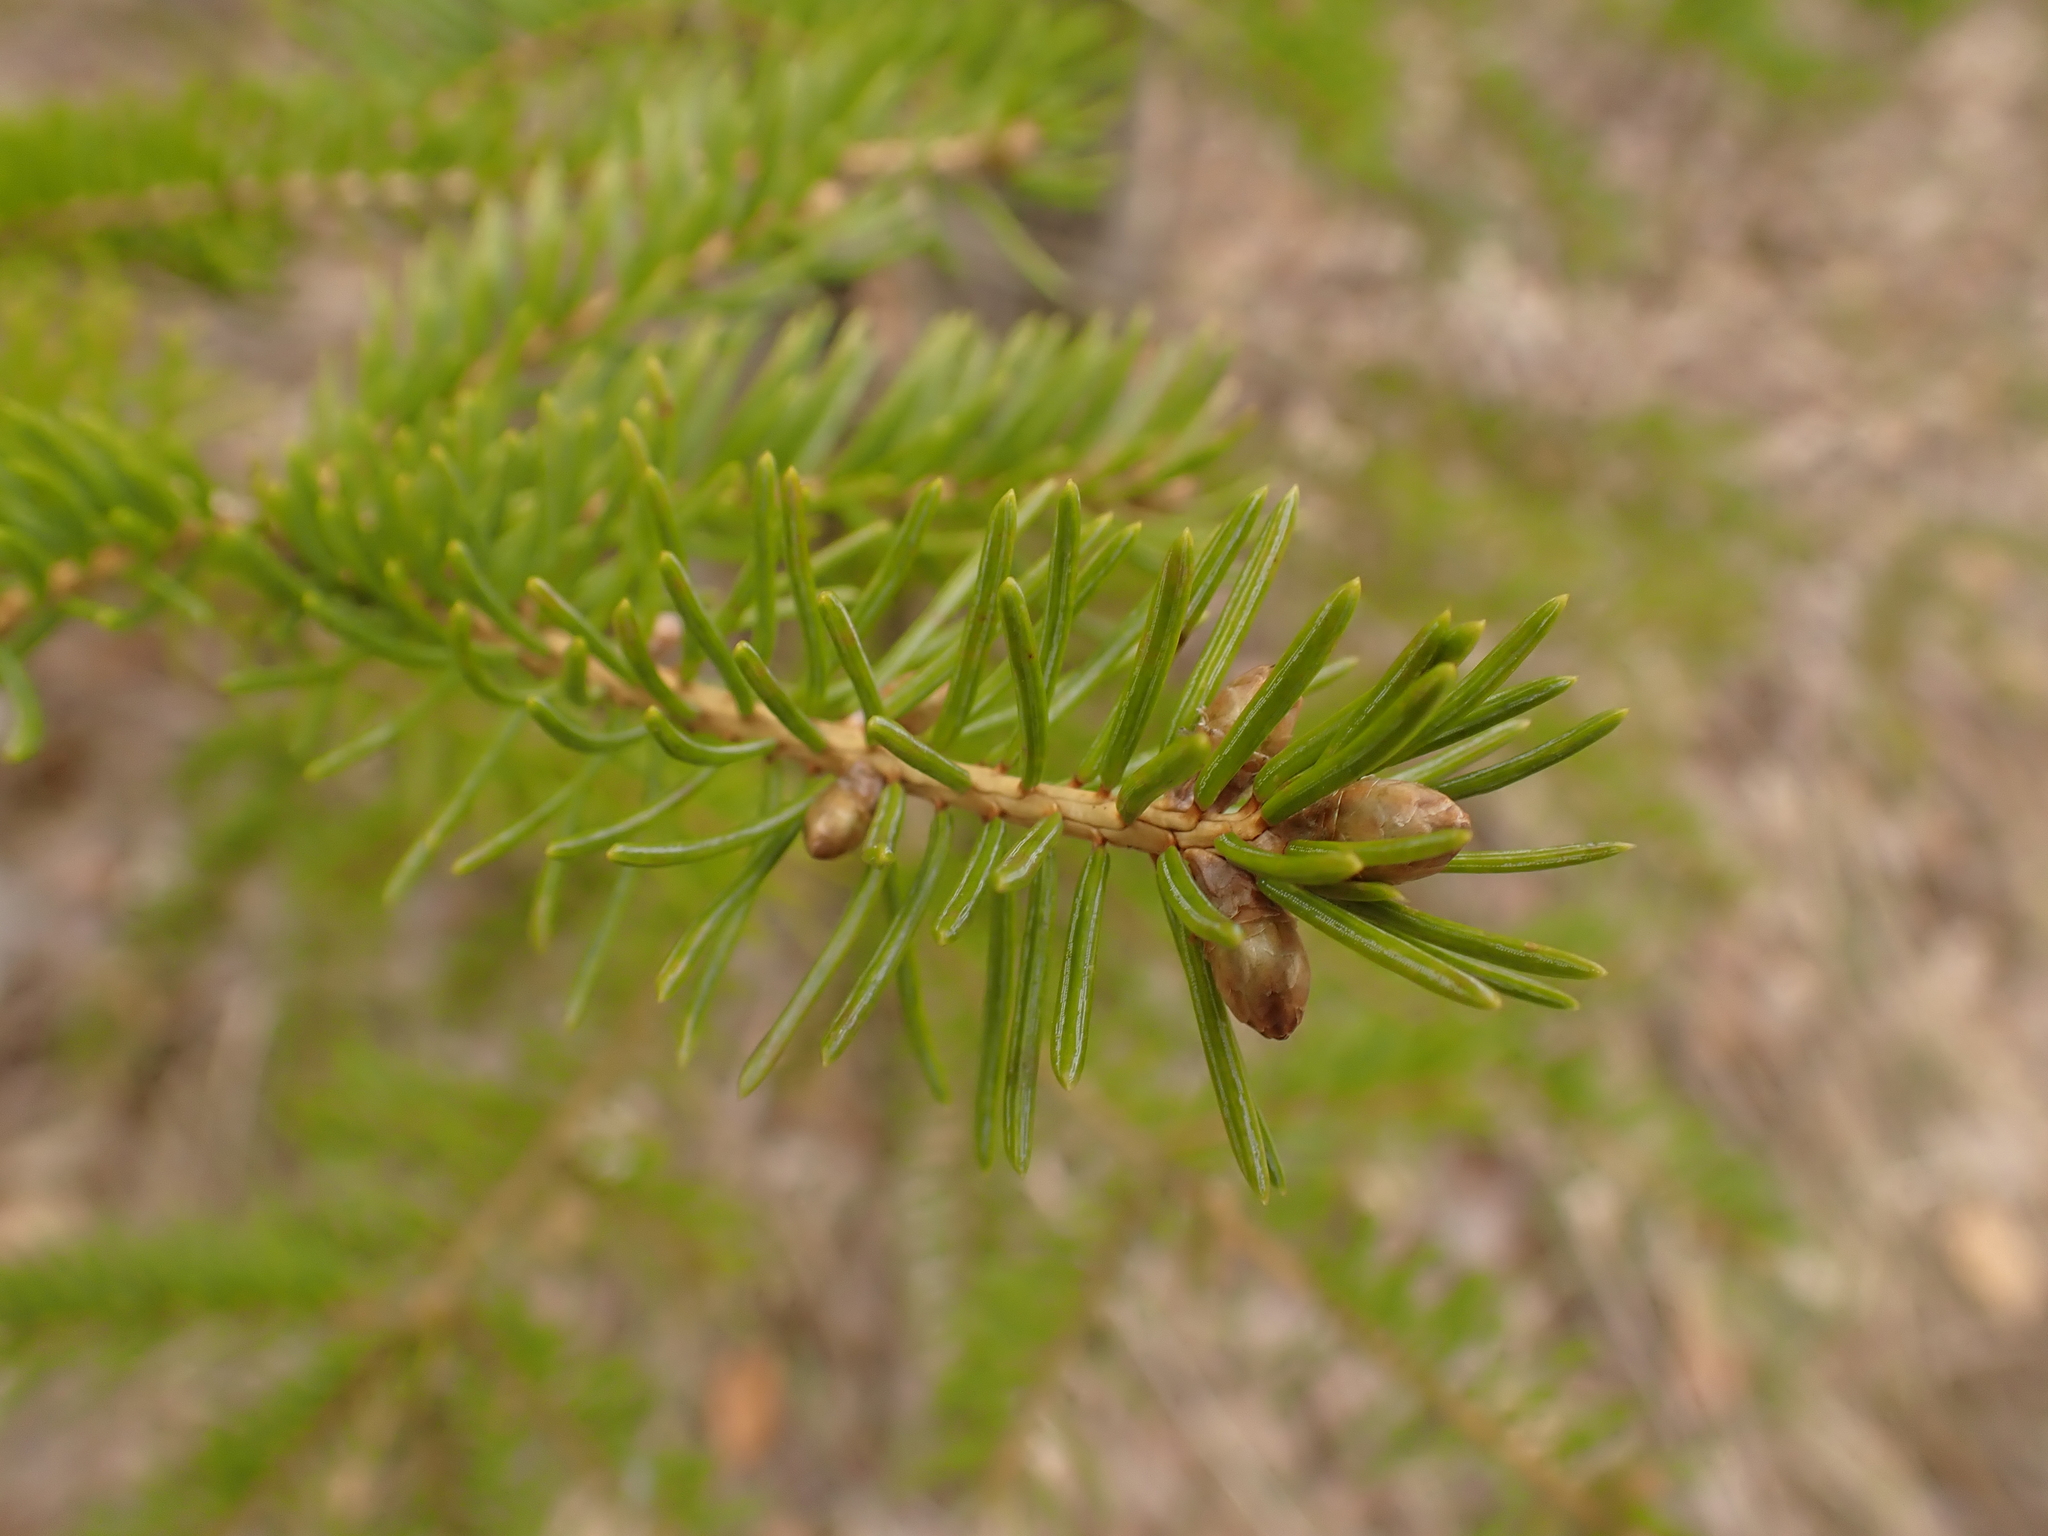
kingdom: Plantae
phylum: Tracheophyta
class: Pinopsida
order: Pinales
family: Pinaceae
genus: Picea
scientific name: Picea glauca
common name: White spruce
